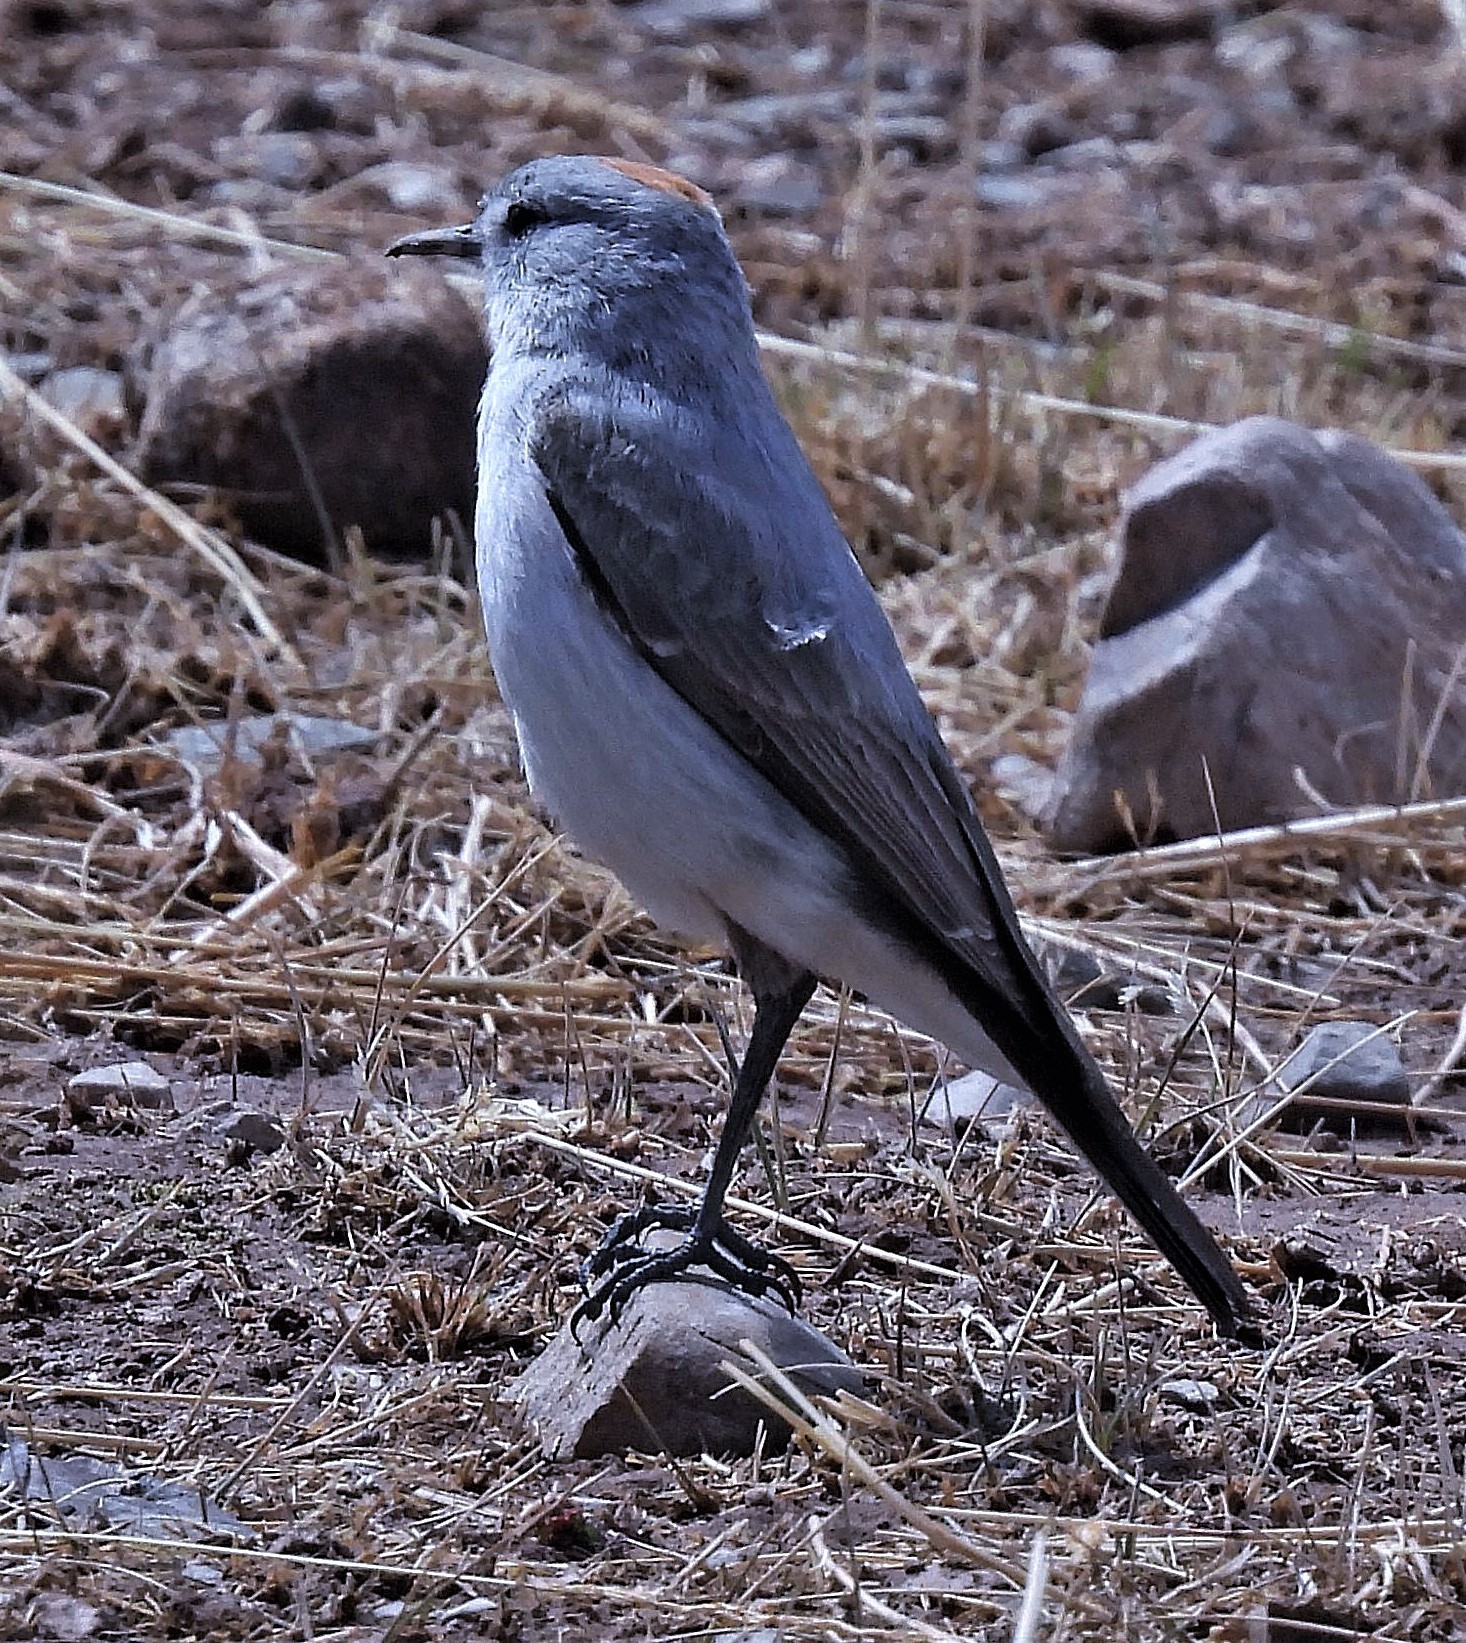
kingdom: Animalia
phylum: Chordata
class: Aves
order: Passeriformes
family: Tyrannidae
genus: Muscisaxicola
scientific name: Muscisaxicola rufivertex
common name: Rufous-naped ground tyrant
